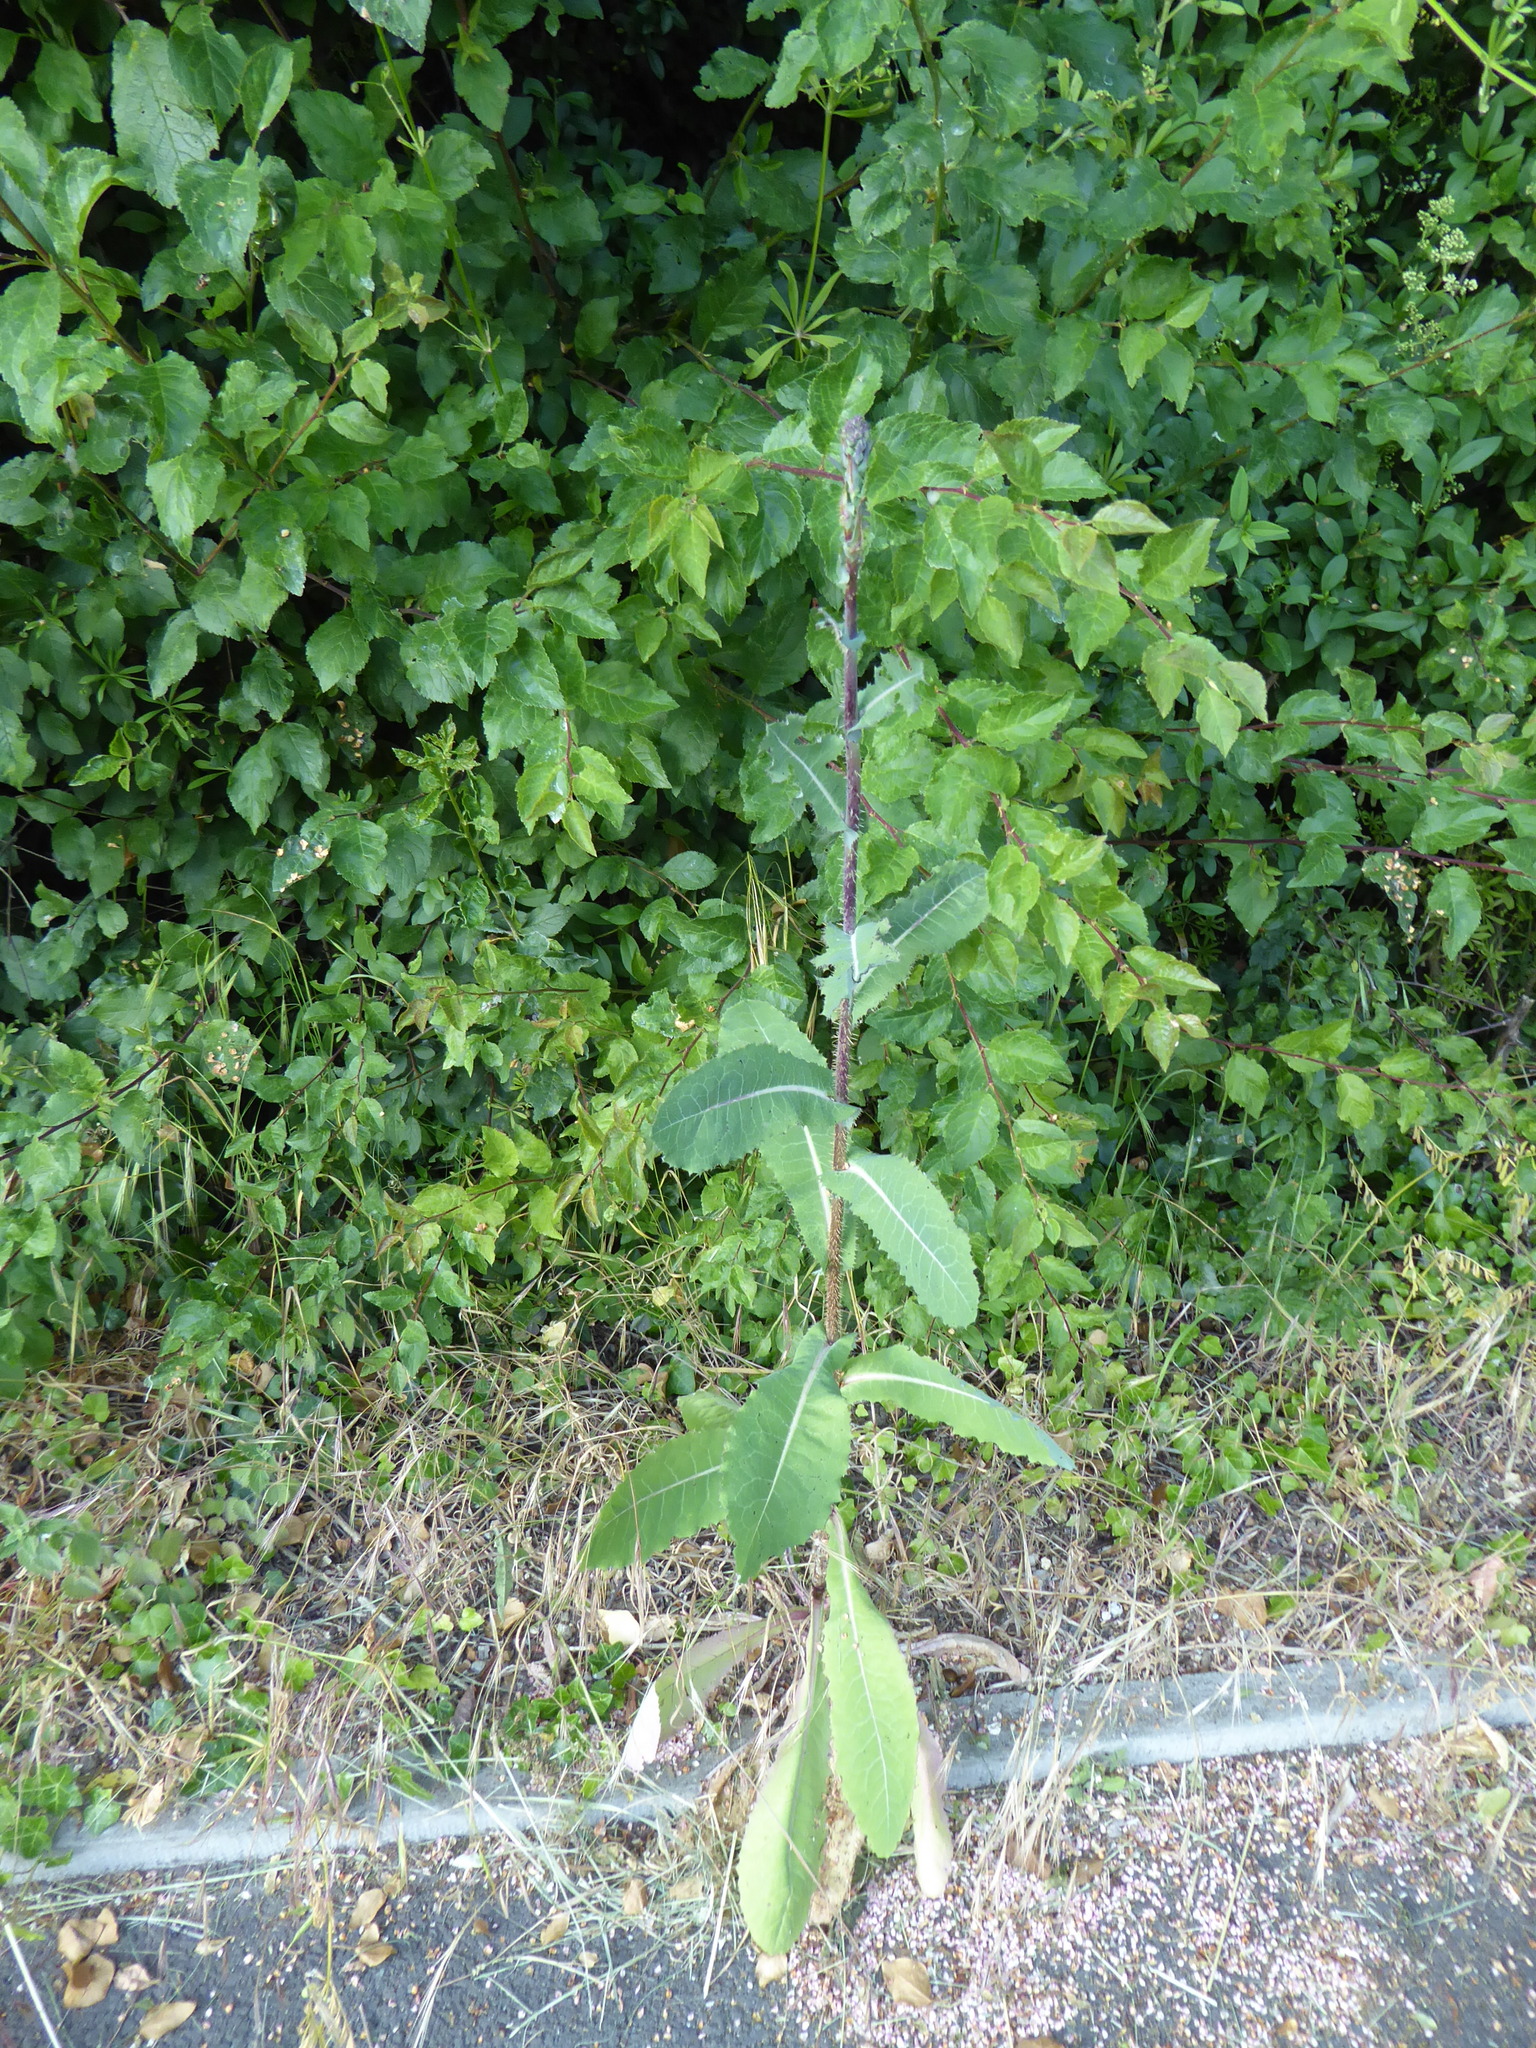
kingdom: Plantae
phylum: Tracheophyta
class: Magnoliopsida
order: Asterales
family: Asteraceae
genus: Lactuca
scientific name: Lactuca serriola
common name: Prickly lettuce
